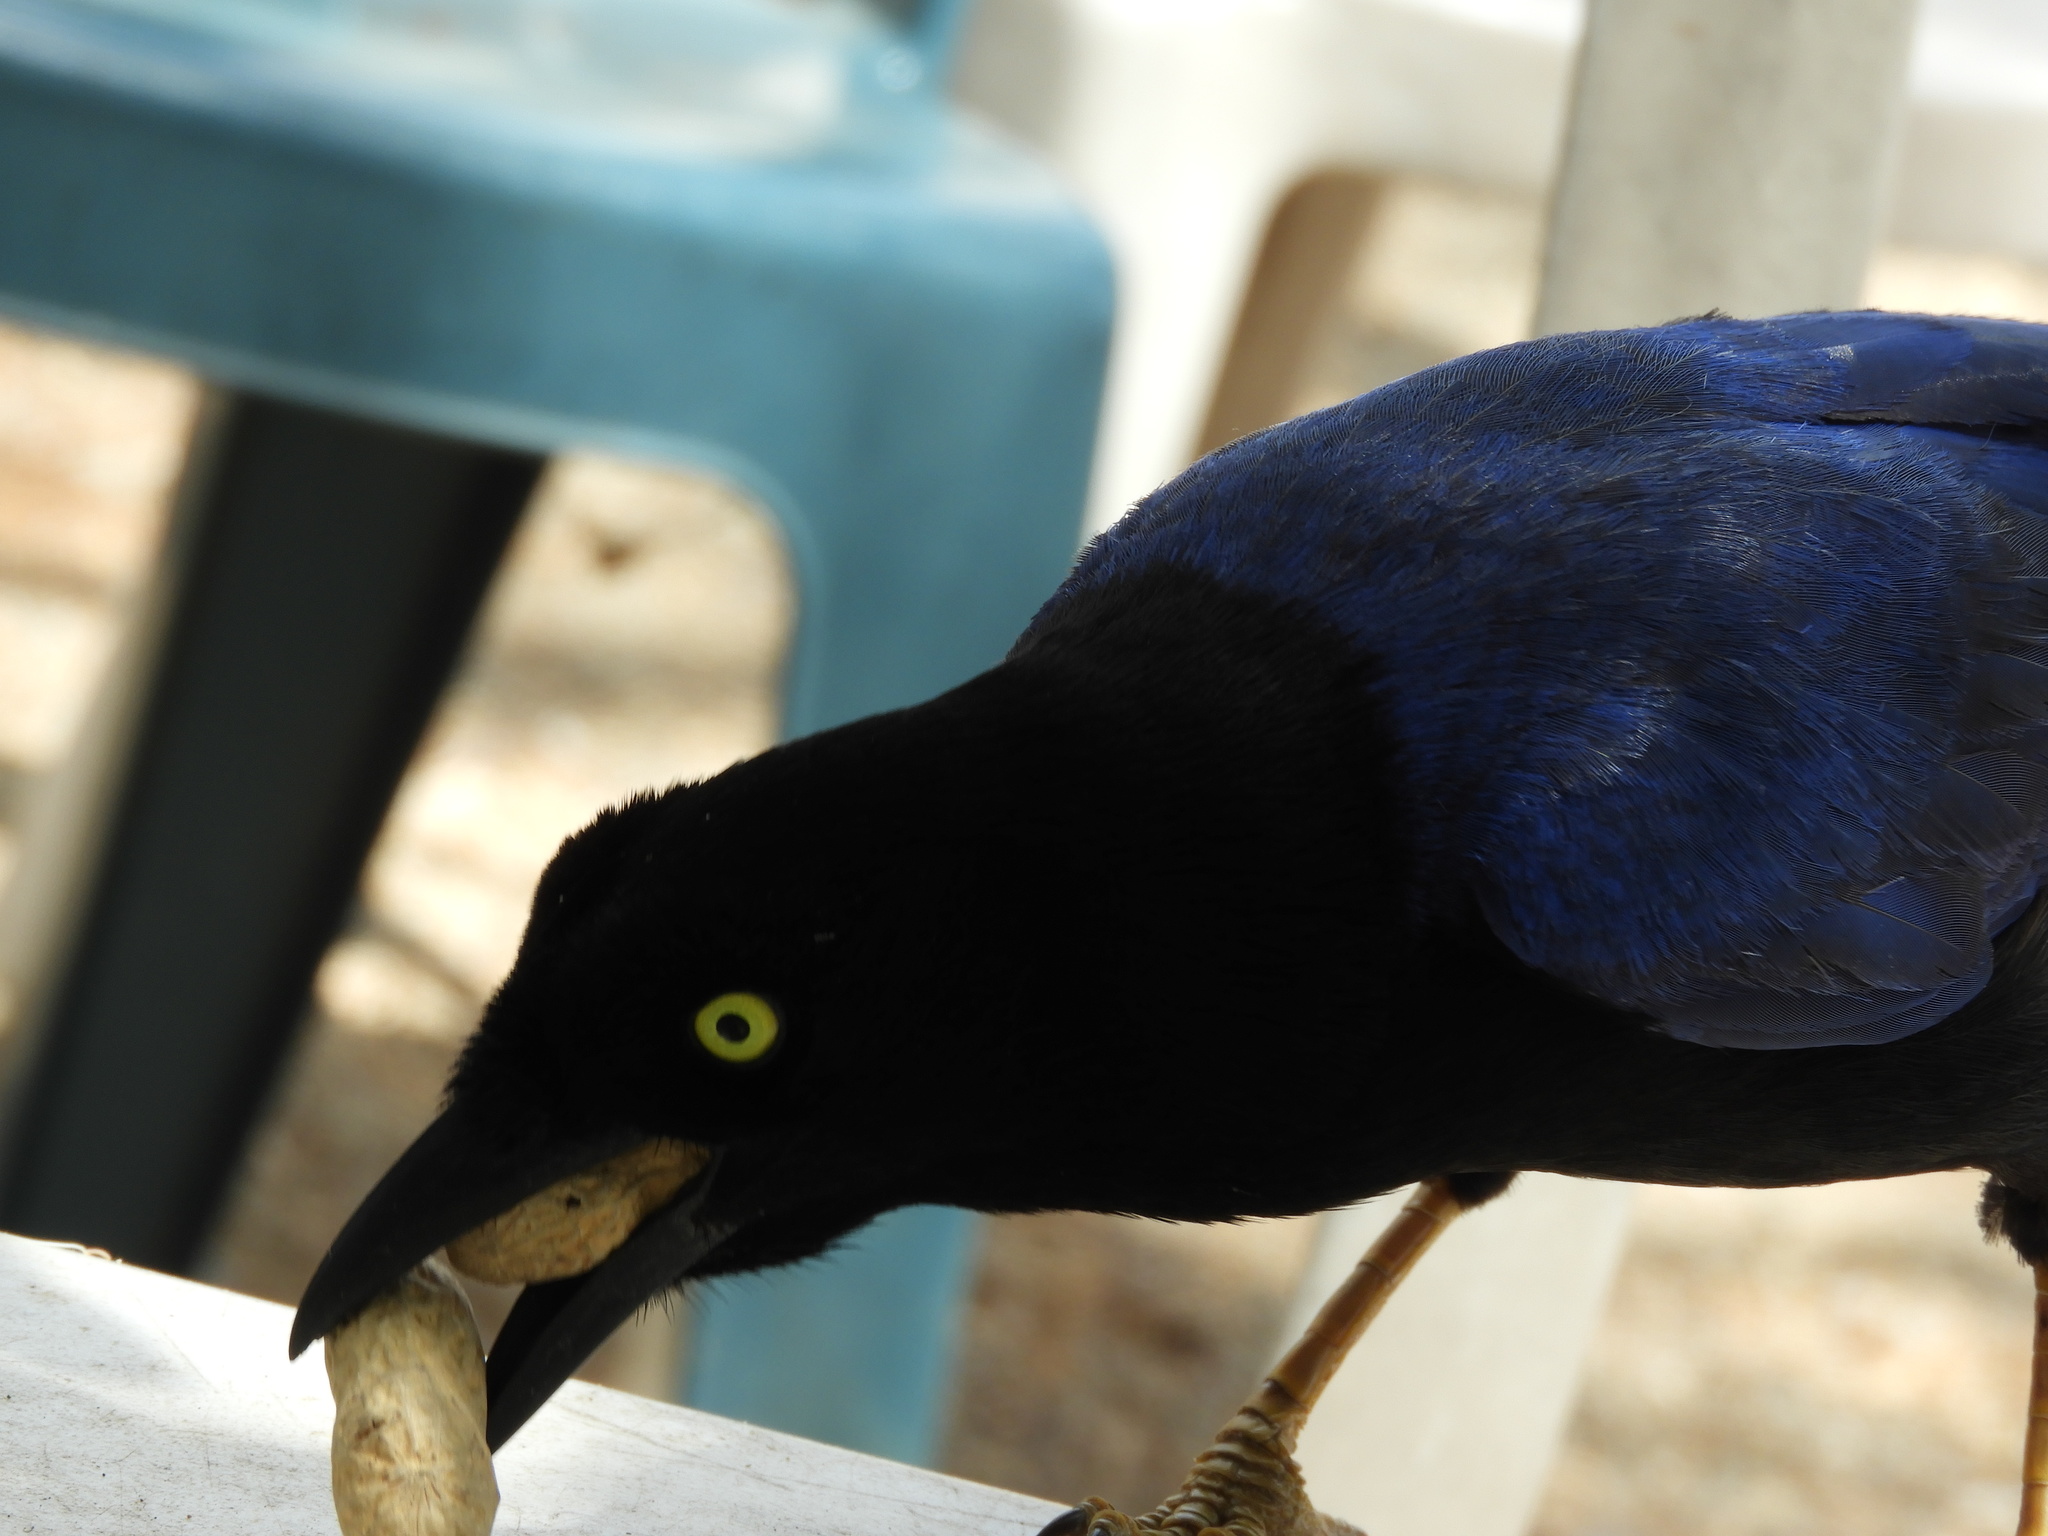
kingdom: Animalia
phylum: Chordata
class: Aves
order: Passeriformes
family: Corvidae
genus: Cyanocorax
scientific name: Cyanocorax beecheii
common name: Purplish-backed jay
